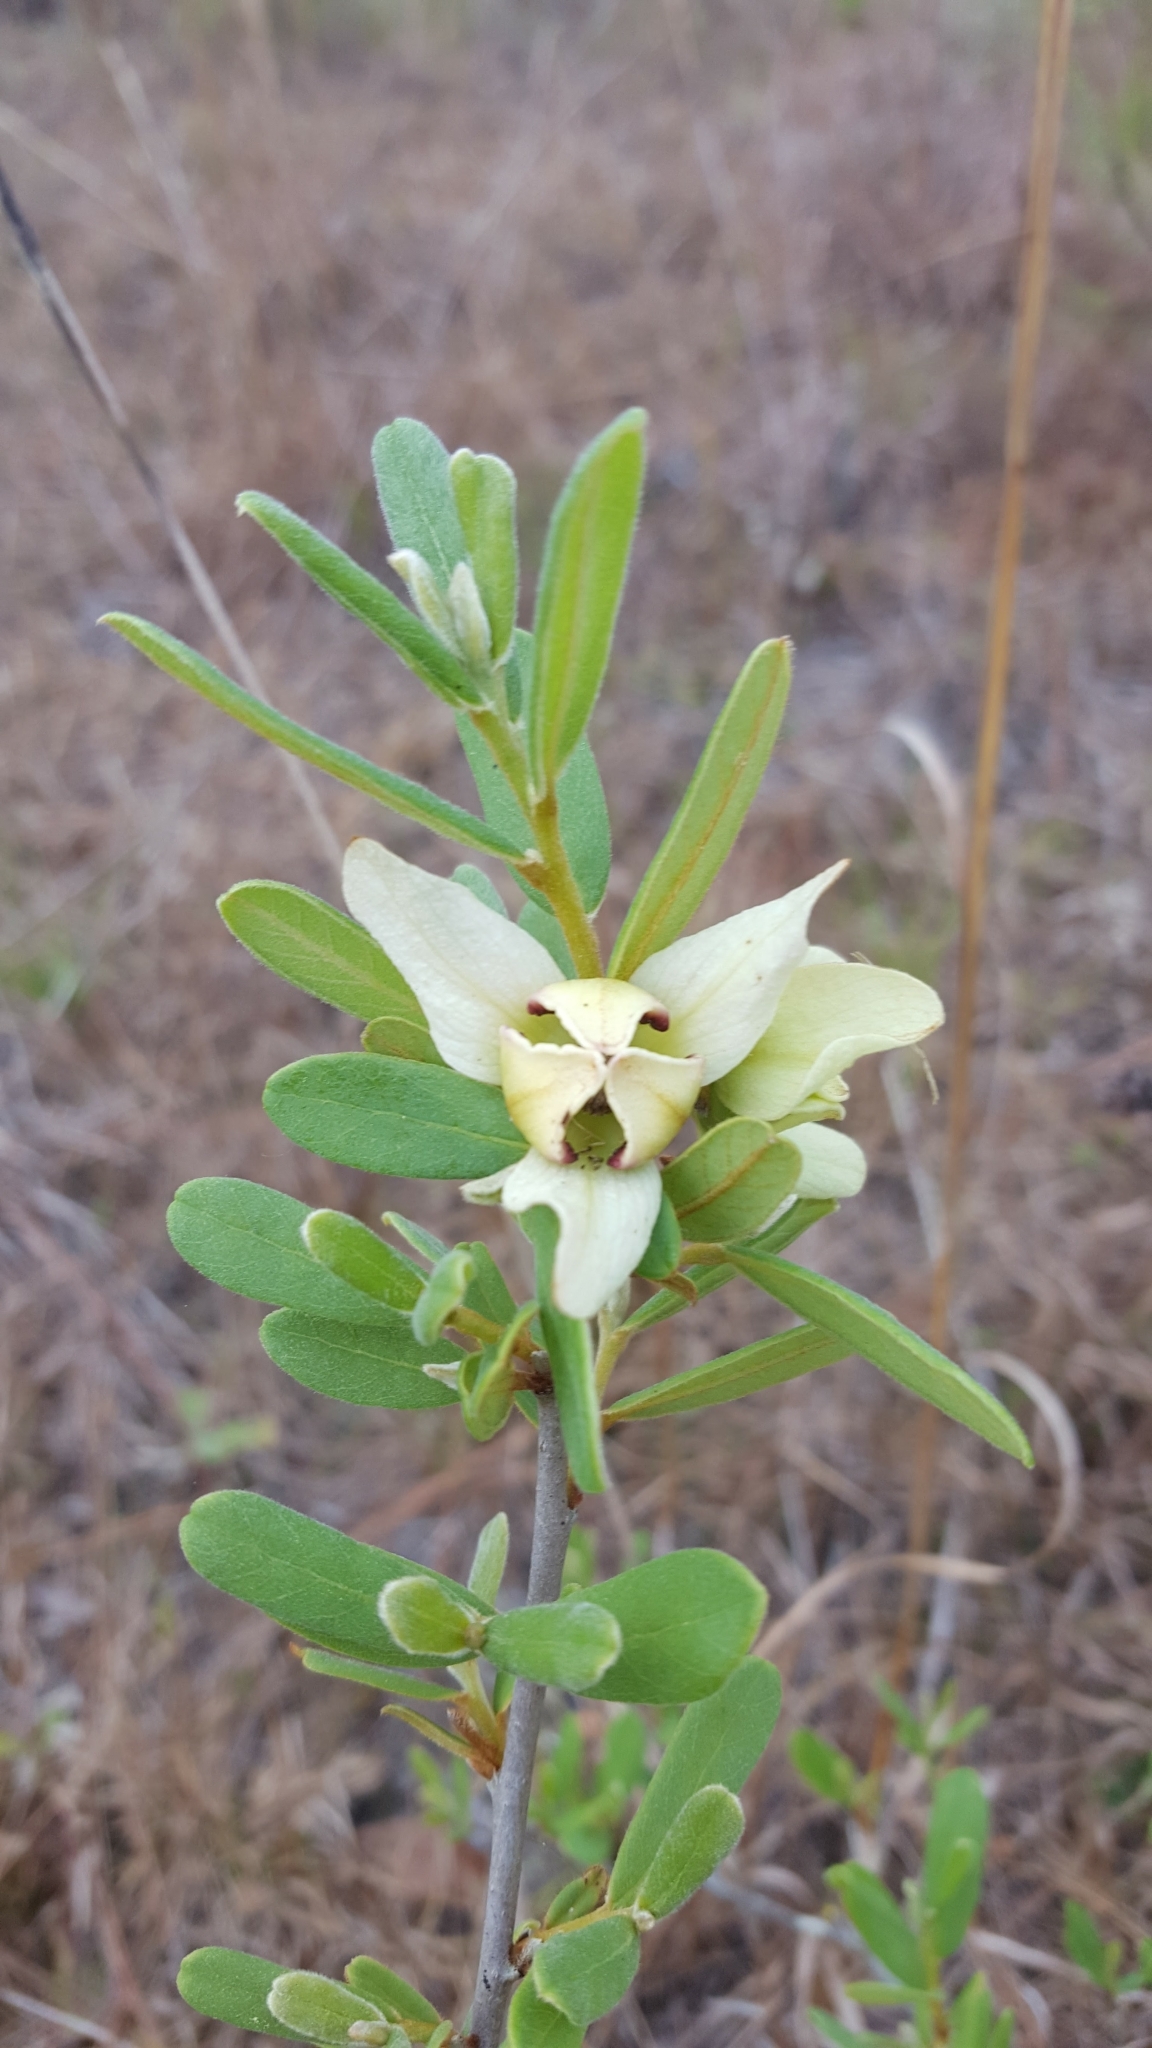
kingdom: Plantae
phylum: Tracheophyta
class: Magnoliopsida
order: Magnoliales
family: Annonaceae
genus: Asimina
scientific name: Asimina reticulata
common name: Flag pawpaw
